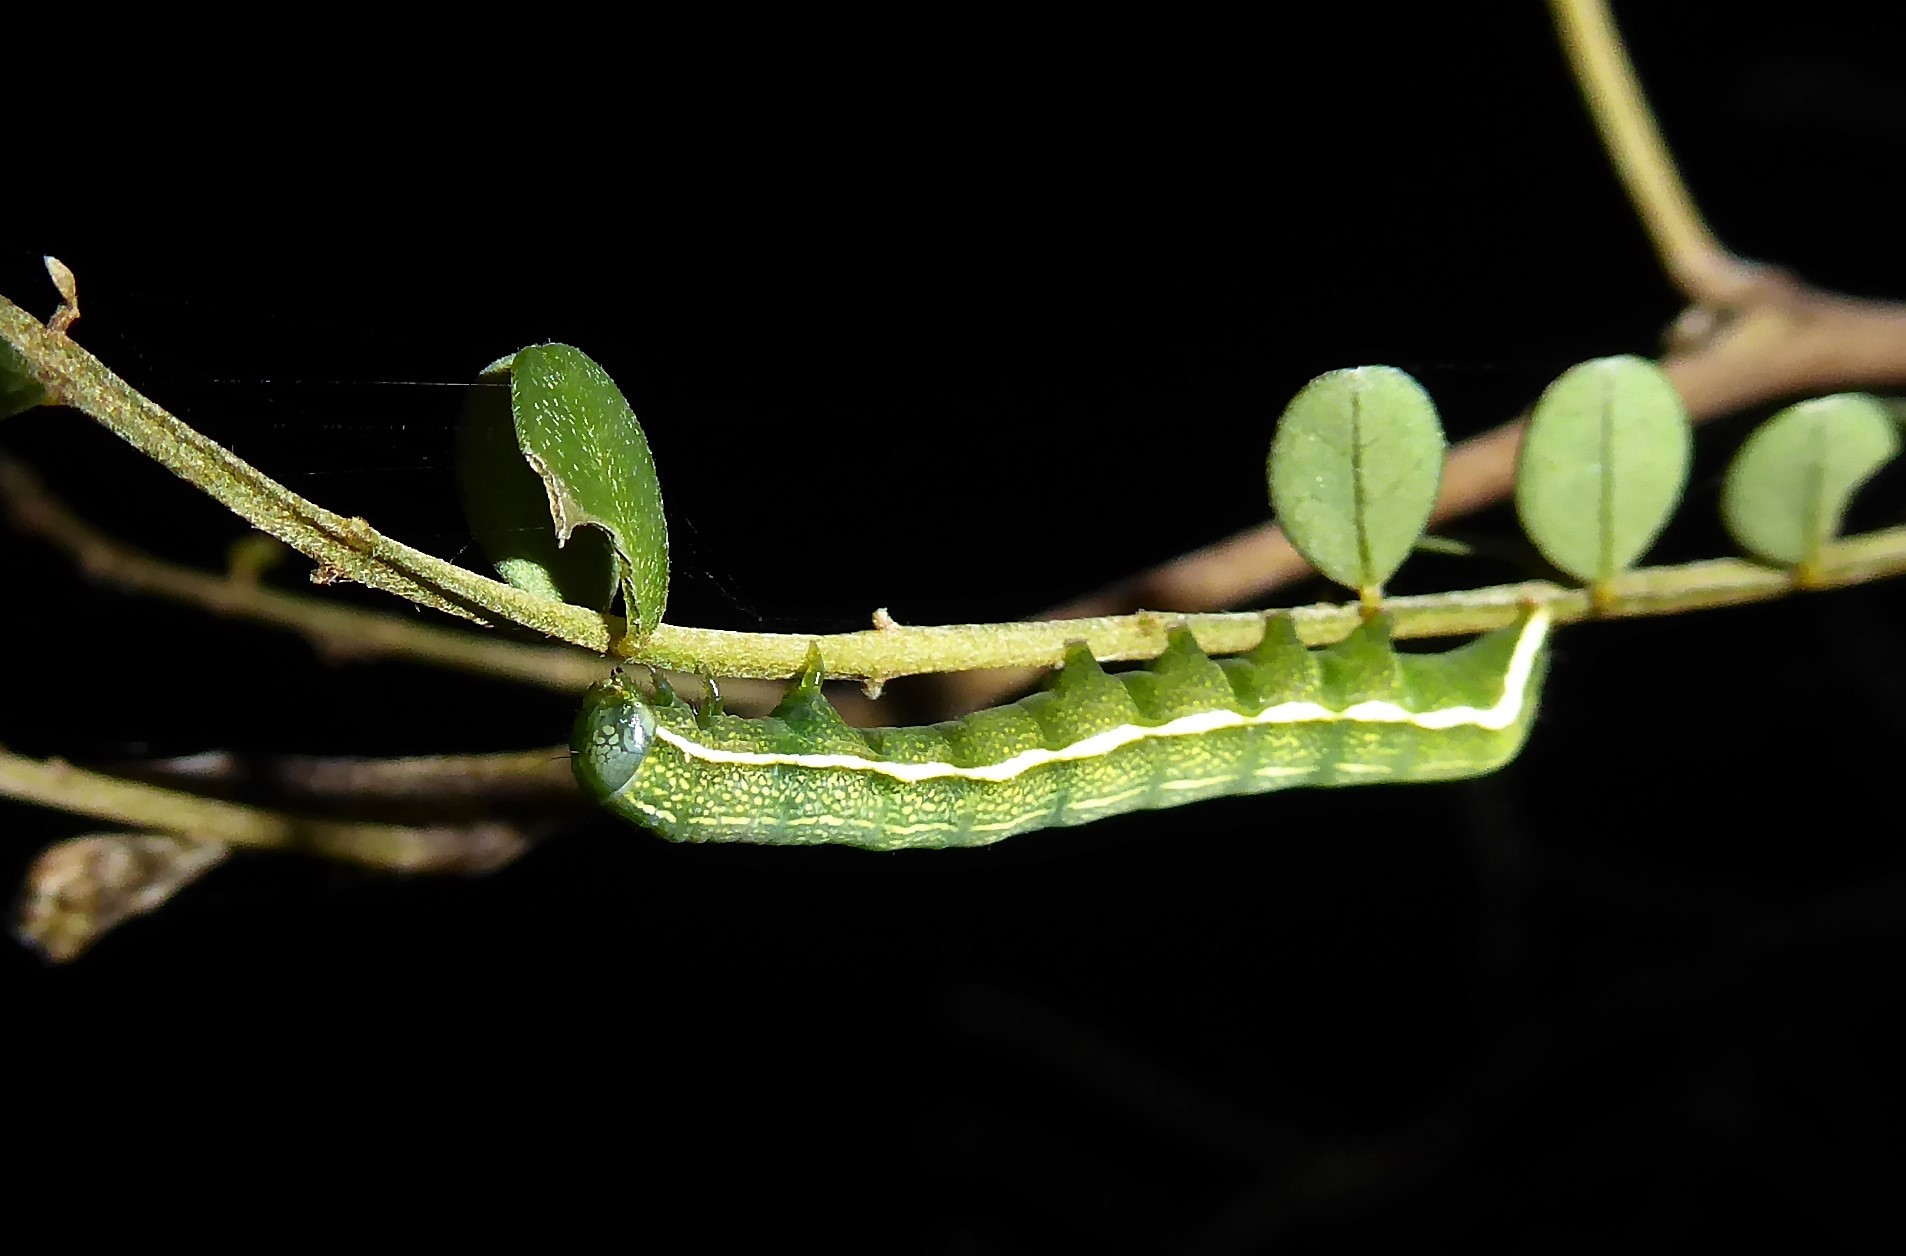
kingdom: Animalia
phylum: Arthropoda
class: Insecta
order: Lepidoptera
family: Noctuidae
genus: Meterana
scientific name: Meterana decorata
